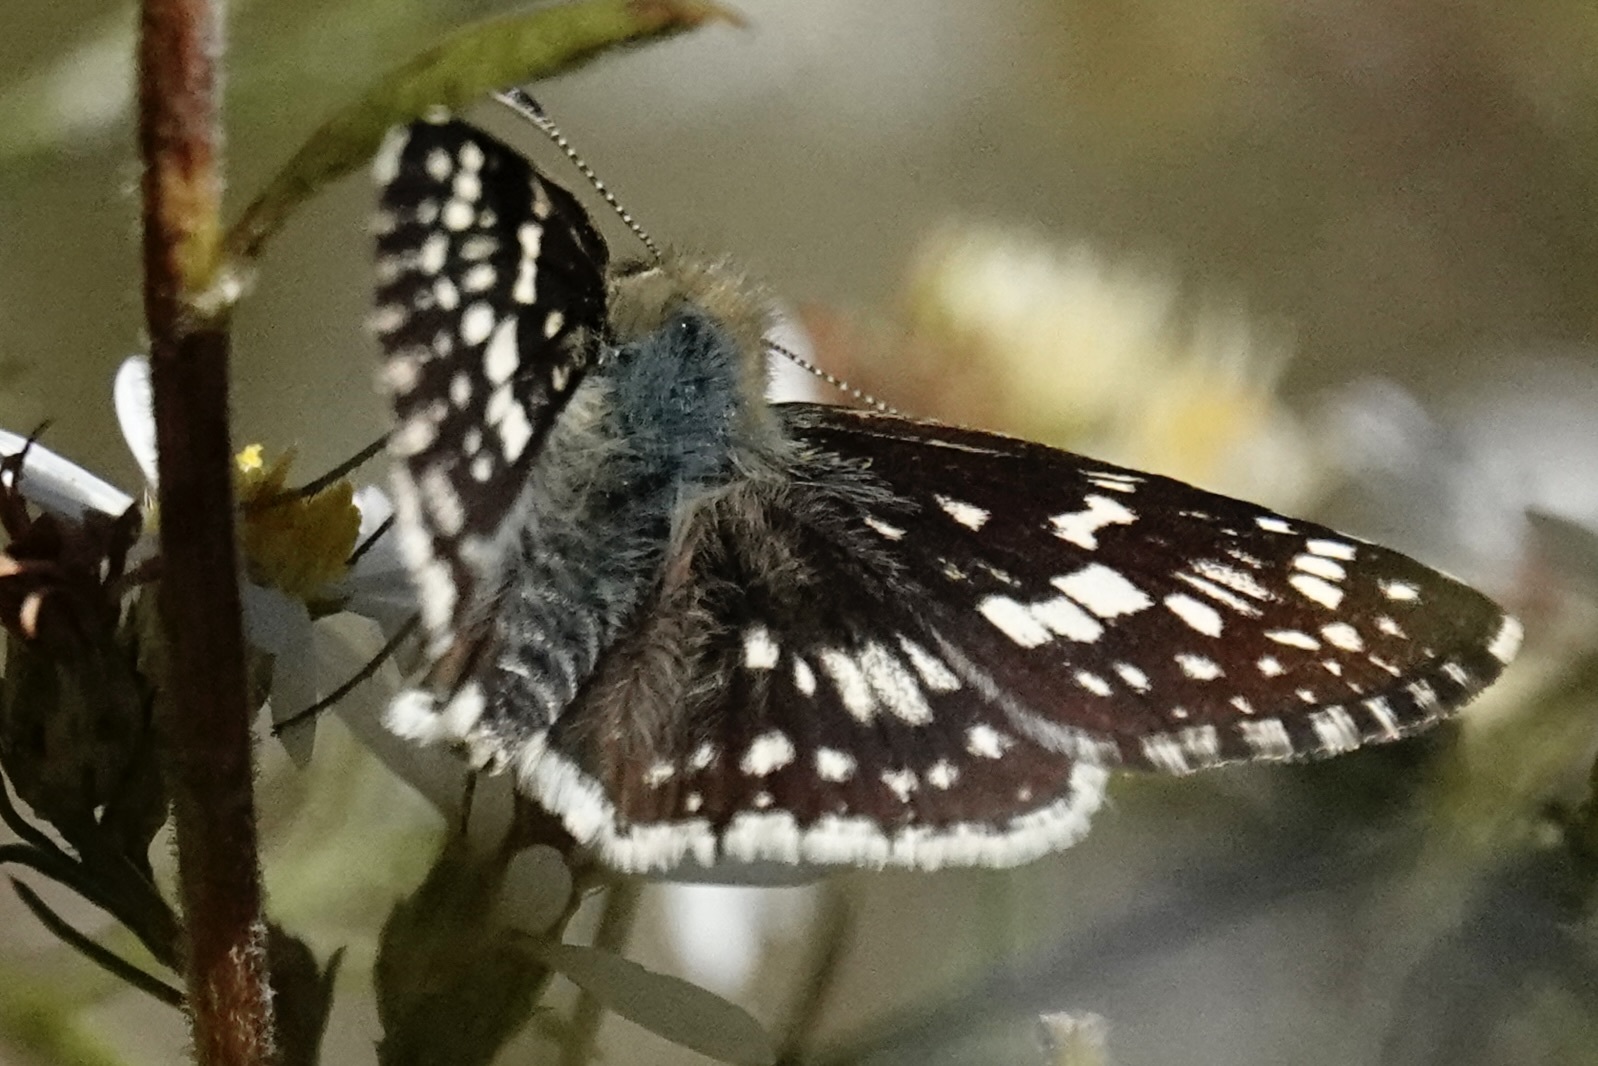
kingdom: Animalia
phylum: Arthropoda
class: Insecta
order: Lepidoptera
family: Hesperiidae
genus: Burnsius
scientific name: Burnsius communis
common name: Common checkered-skipper
